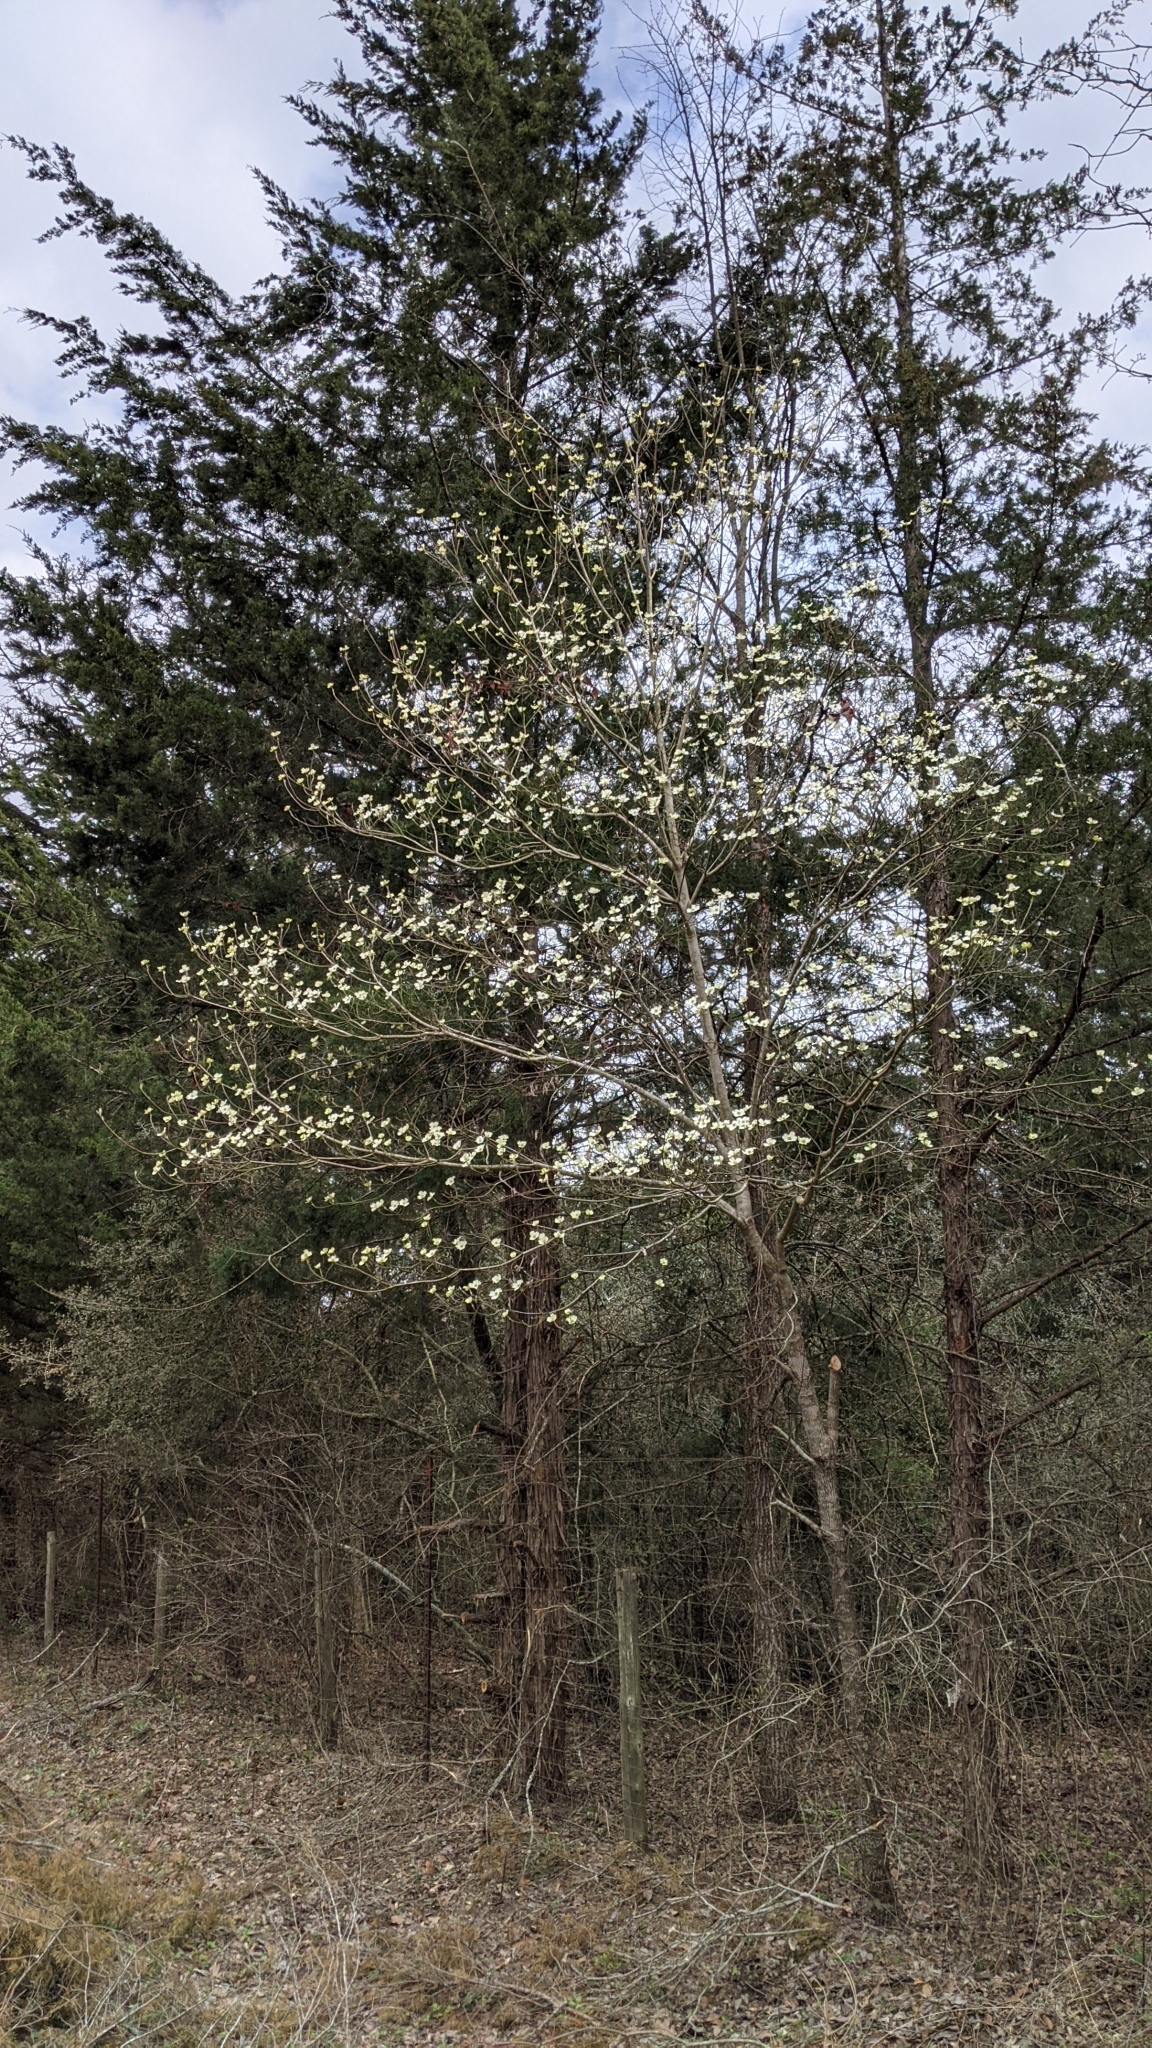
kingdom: Plantae
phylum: Tracheophyta
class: Magnoliopsida
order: Cornales
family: Cornaceae
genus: Cornus
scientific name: Cornus florida
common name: Flowering dogwood
